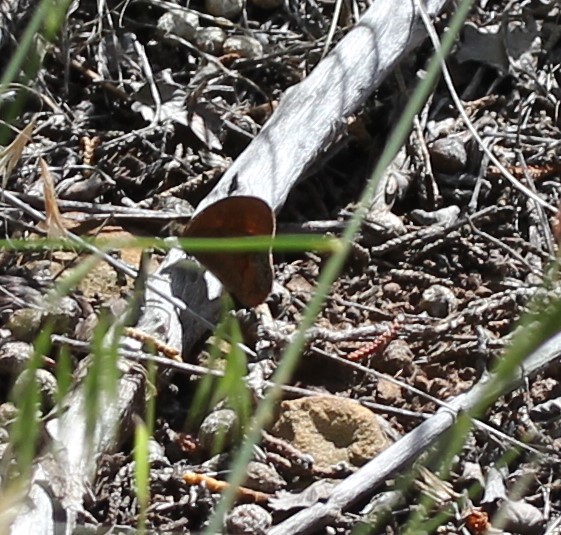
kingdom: Animalia
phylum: Arthropoda
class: Insecta
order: Lepidoptera
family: Nymphalidae
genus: Euptychia
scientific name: Euptychia Cyllopsis pertepida
